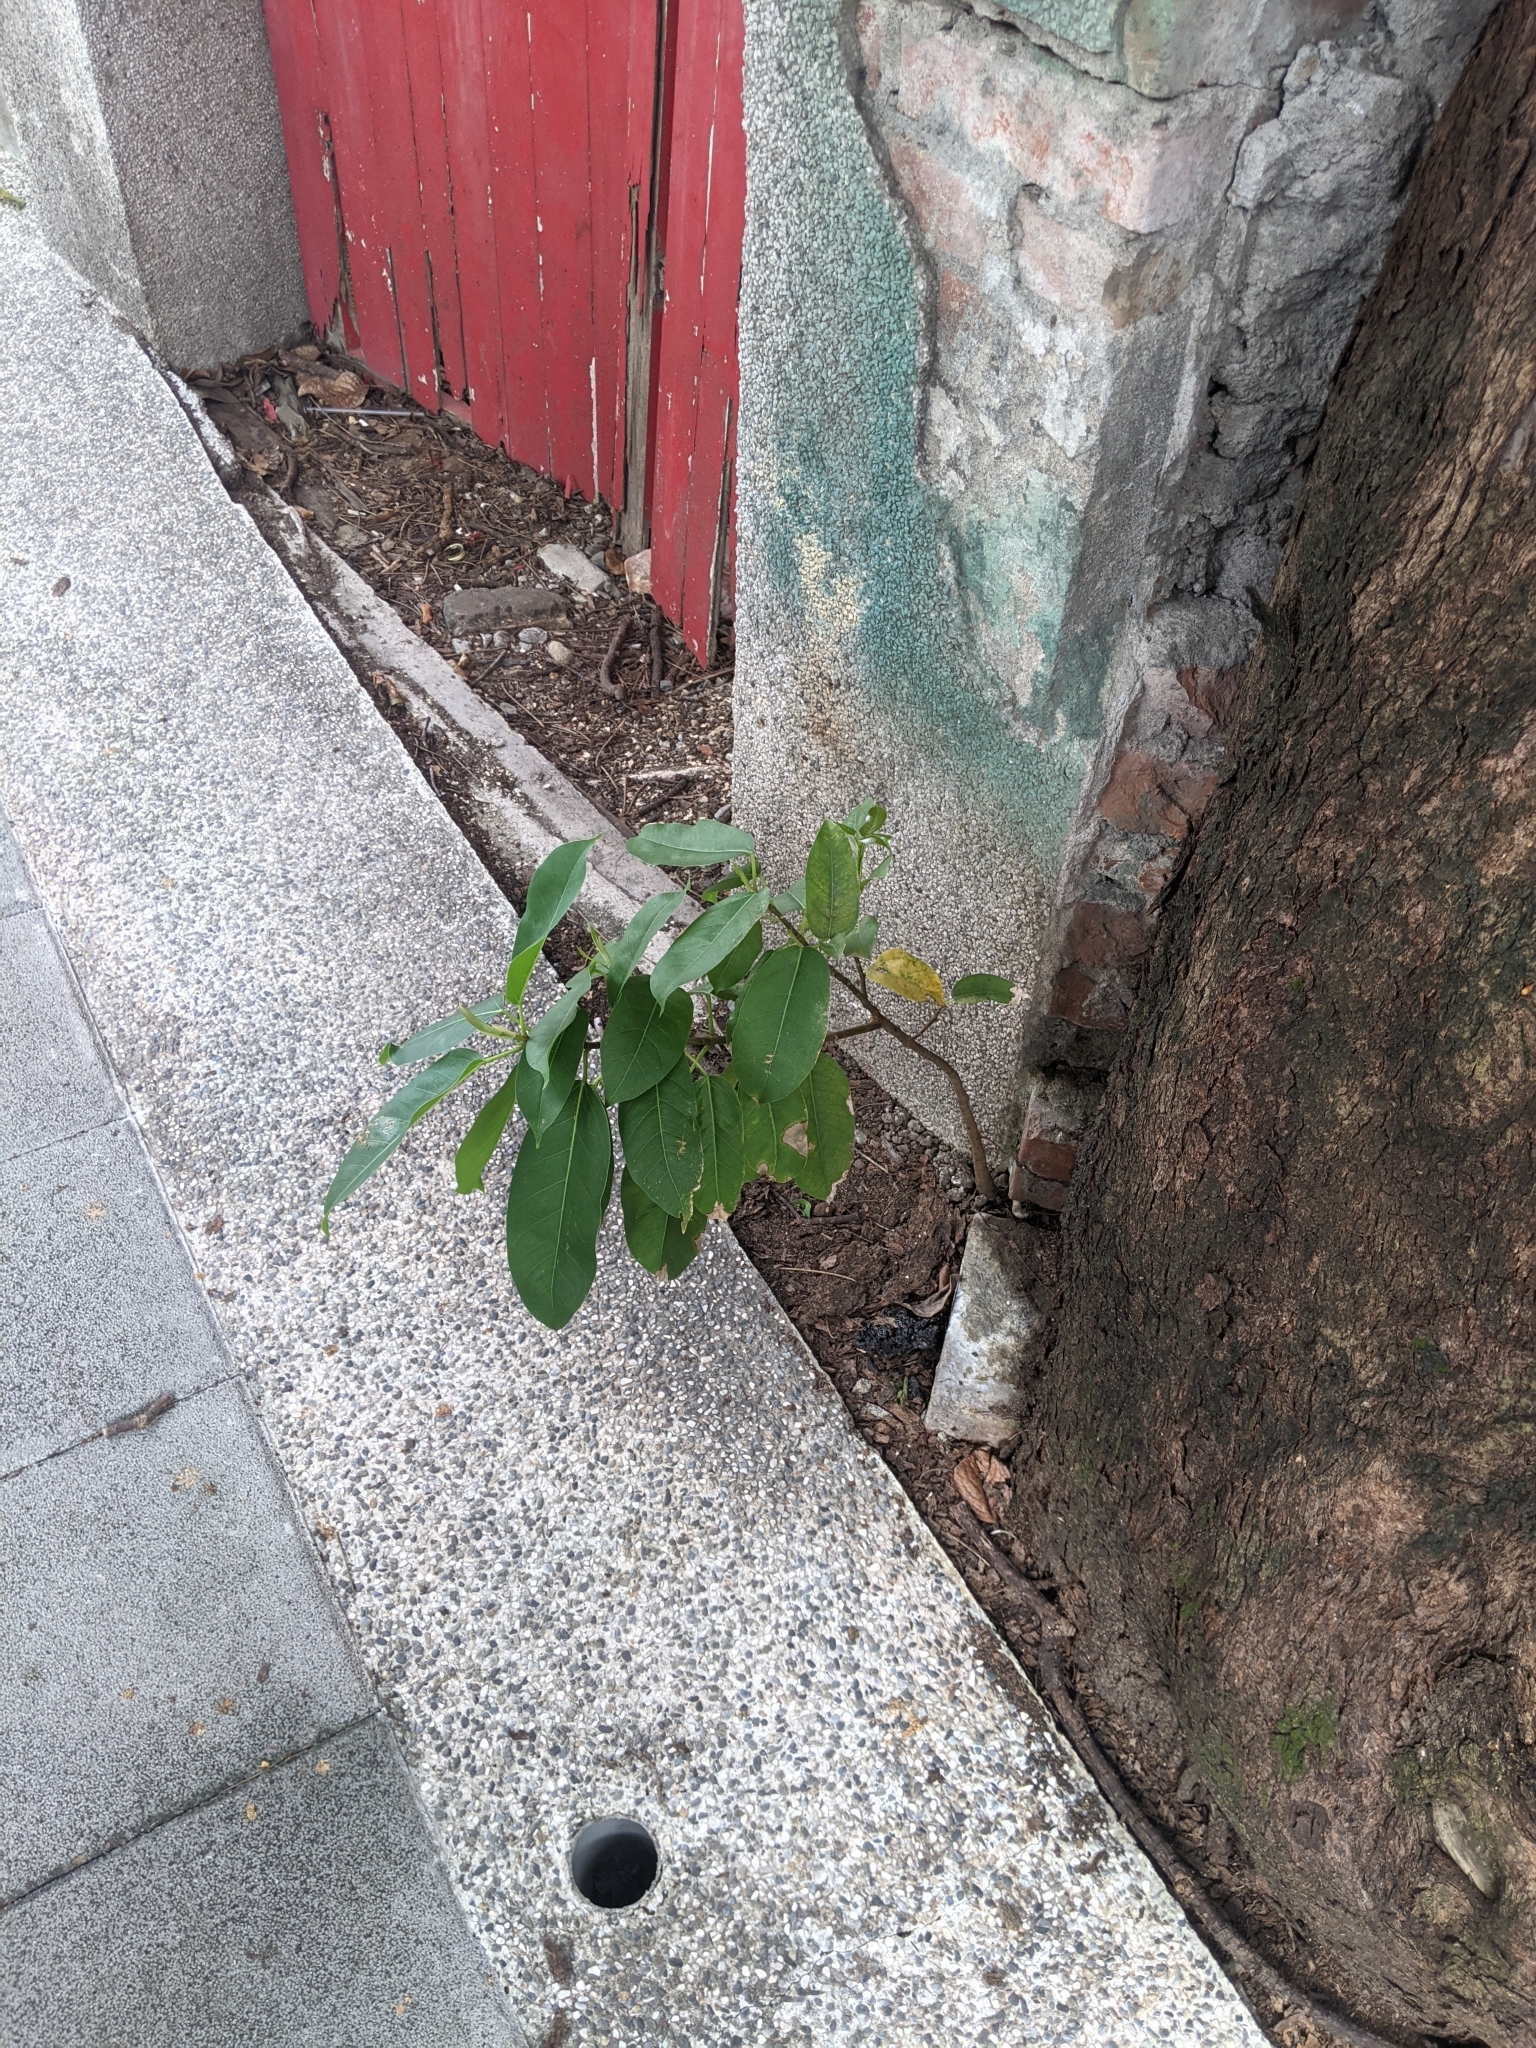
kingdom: Plantae
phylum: Tracheophyta
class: Magnoliopsida
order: Rosales
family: Moraceae
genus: Ficus
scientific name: Ficus subpisocarpa
